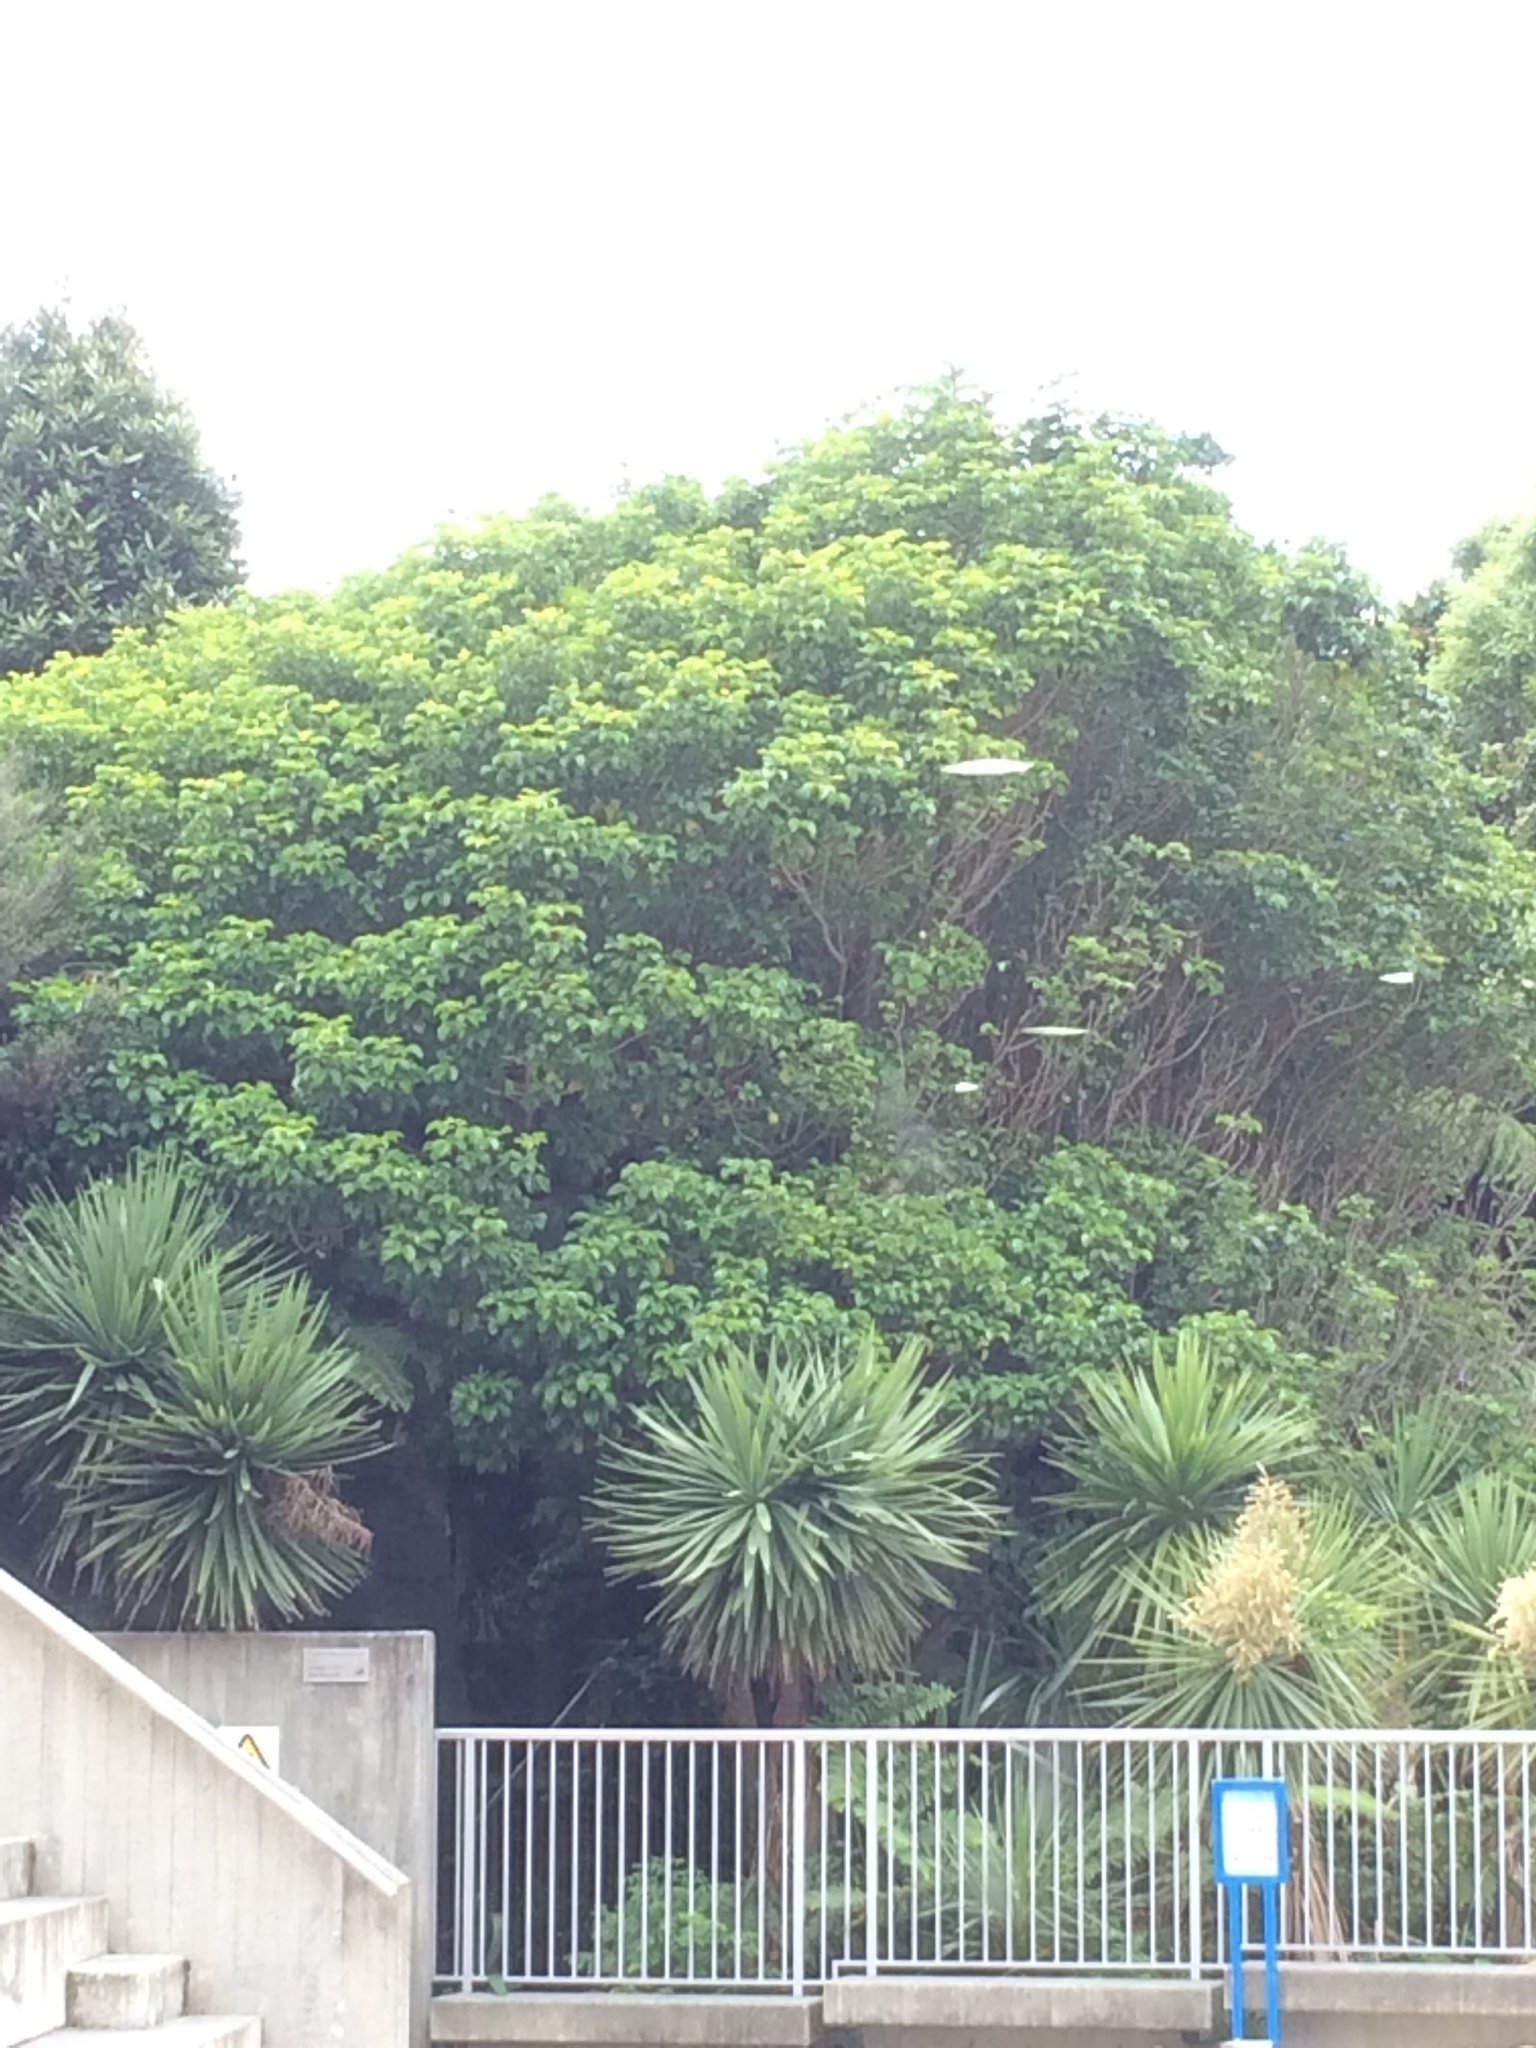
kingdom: Plantae
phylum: Tracheophyta
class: Magnoliopsida
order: Lamiales
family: Lamiaceae
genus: Vitex
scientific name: Vitex lucens
